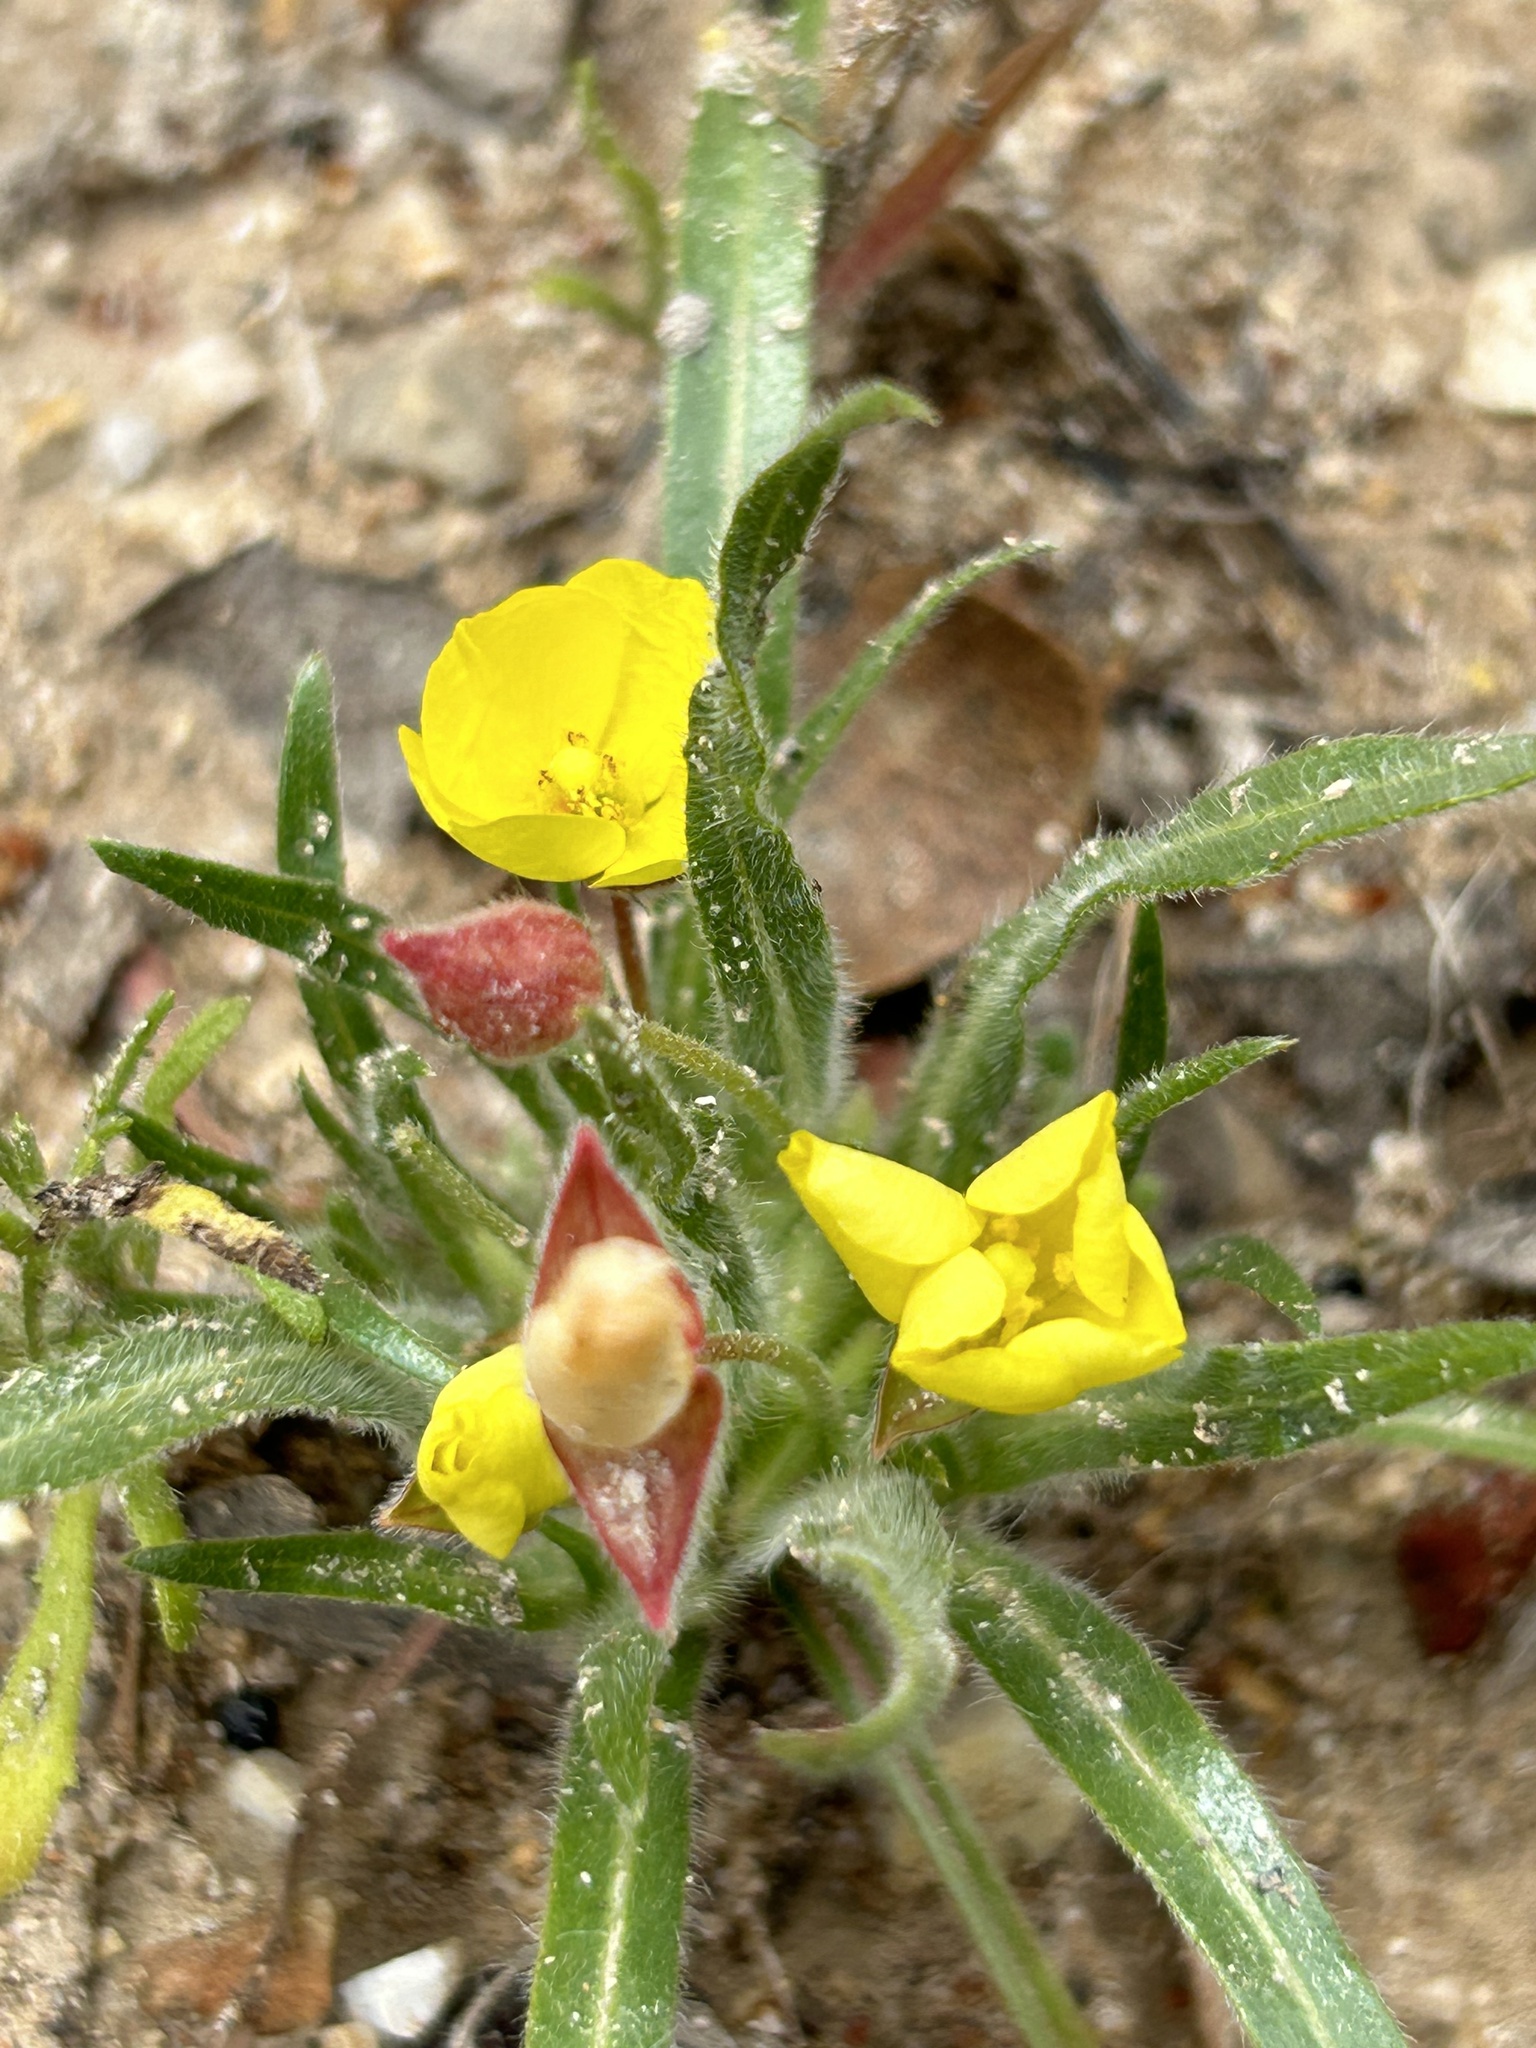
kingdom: Plantae
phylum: Tracheophyta
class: Magnoliopsida
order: Myrtales
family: Onagraceae
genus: Tetrapteron
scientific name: Tetrapteron graciliflorum
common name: Hill suncup
